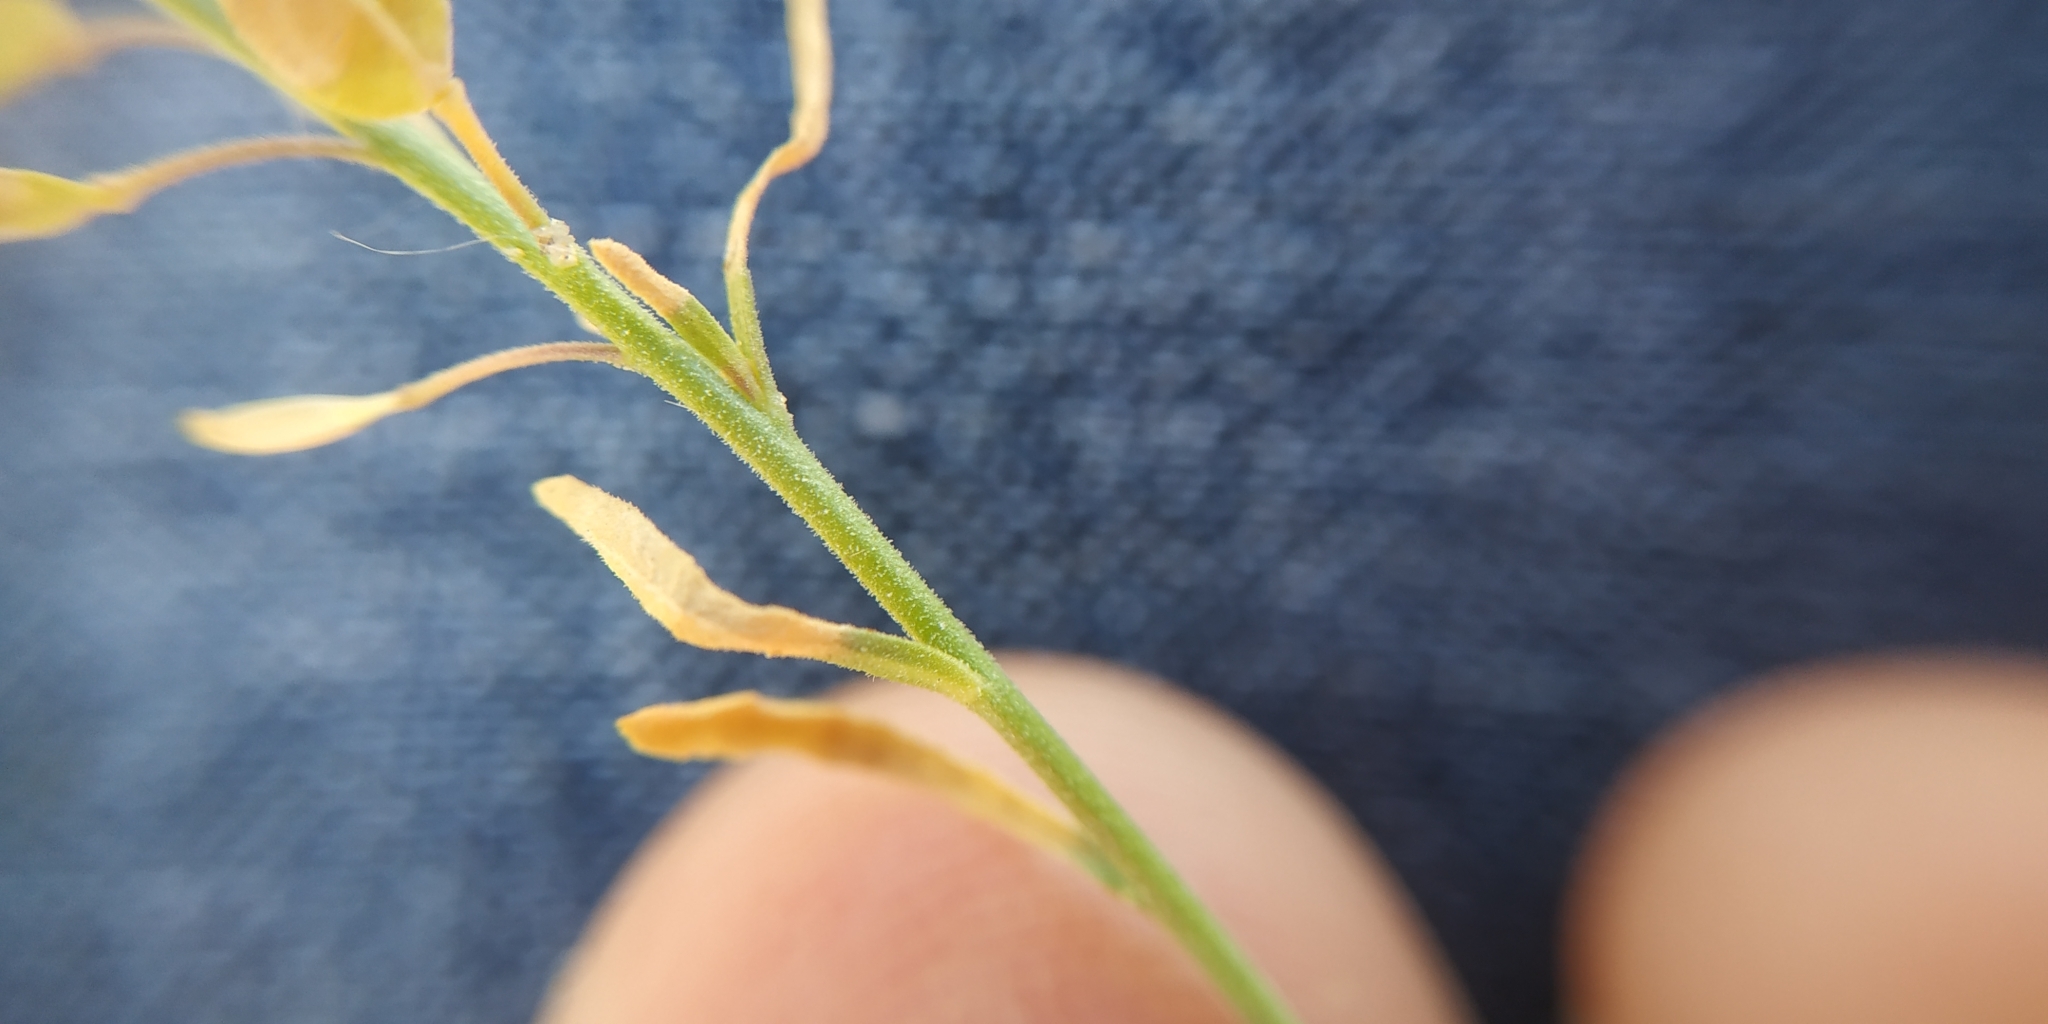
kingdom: Plantae
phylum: Tracheophyta
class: Magnoliopsida
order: Brassicales
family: Brassicaceae
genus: Lepidium
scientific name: Lepidium densiflorum
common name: Miner's pepperwort
